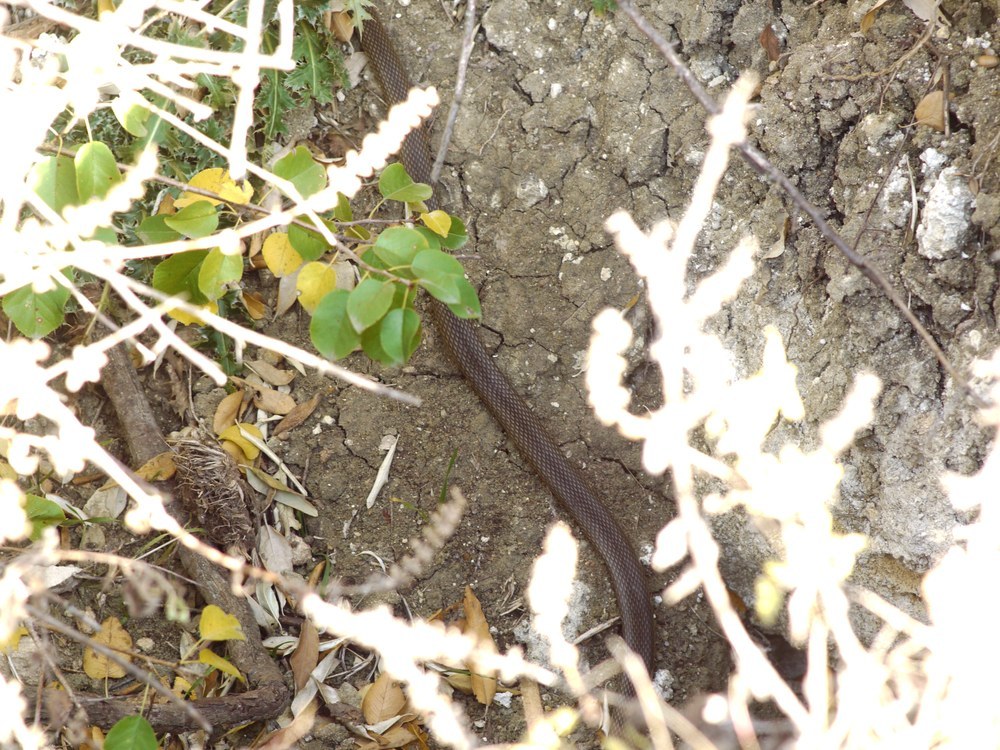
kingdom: Animalia
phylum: Chordata
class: Squamata
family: Colubridae
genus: Dolichophis
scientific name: Dolichophis caspius
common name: Large whip snake
